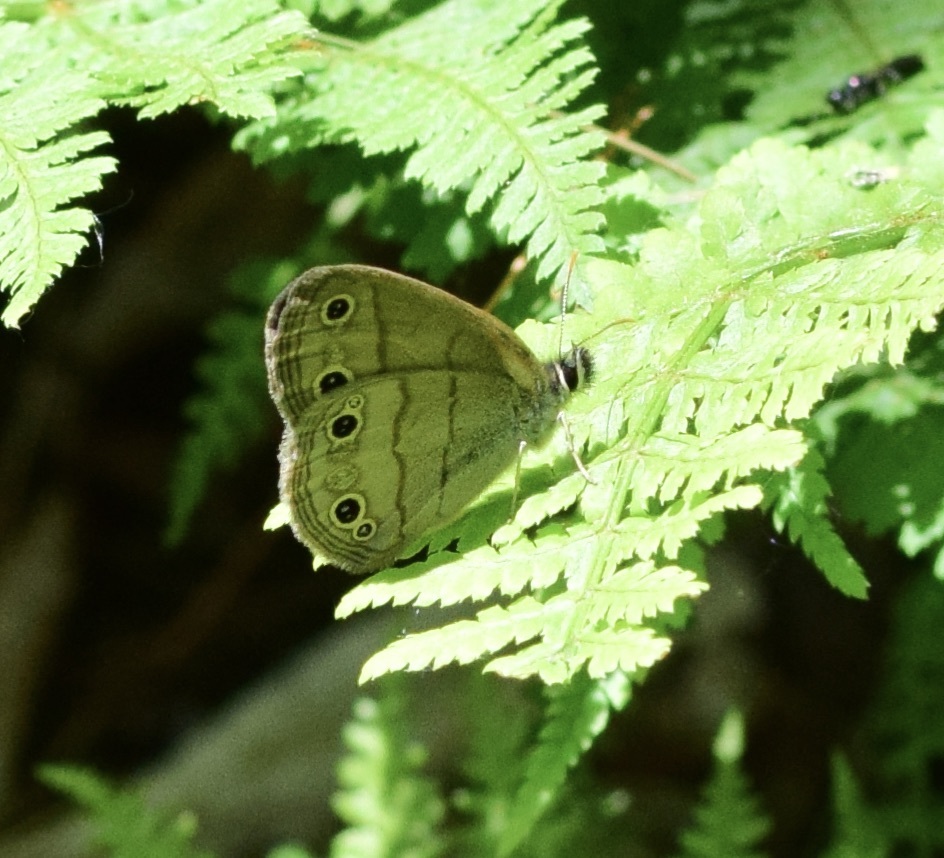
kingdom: Animalia
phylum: Arthropoda
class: Insecta
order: Lepidoptera
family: Nymphalidae
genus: Euptychia
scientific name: Euptychia cymela
